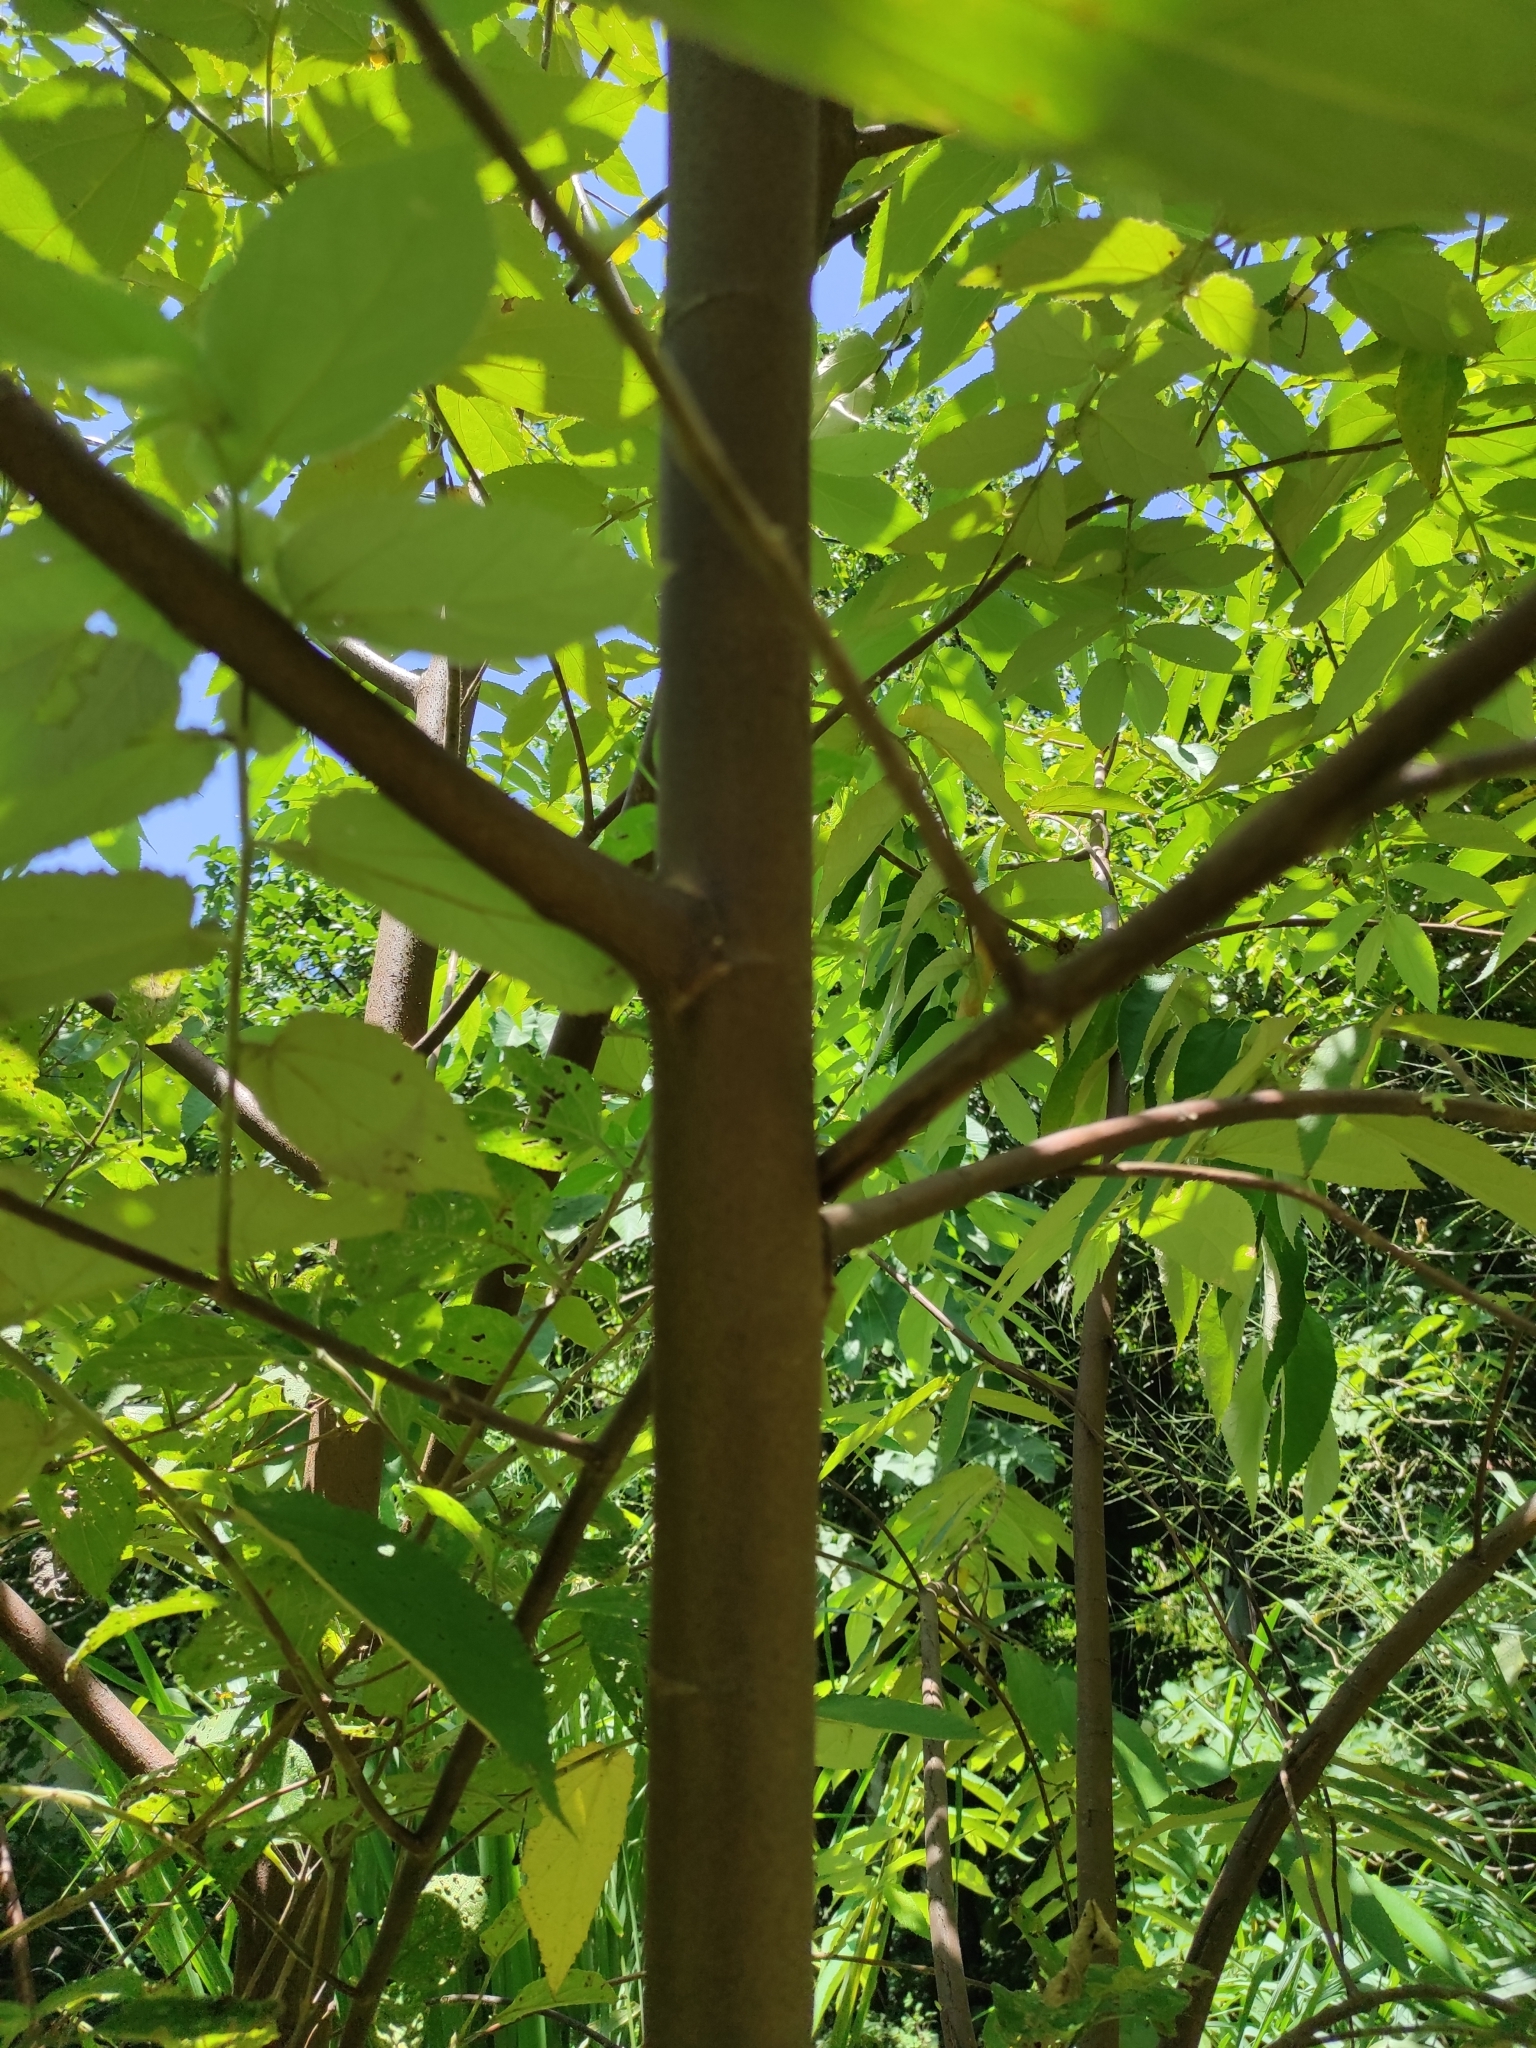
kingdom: Plantae
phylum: Tracheophyta
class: Magnoliopsida
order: Malvales
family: Muntingiaceae
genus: Dicraspidia
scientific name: Dicraspidia donnell-smithii
